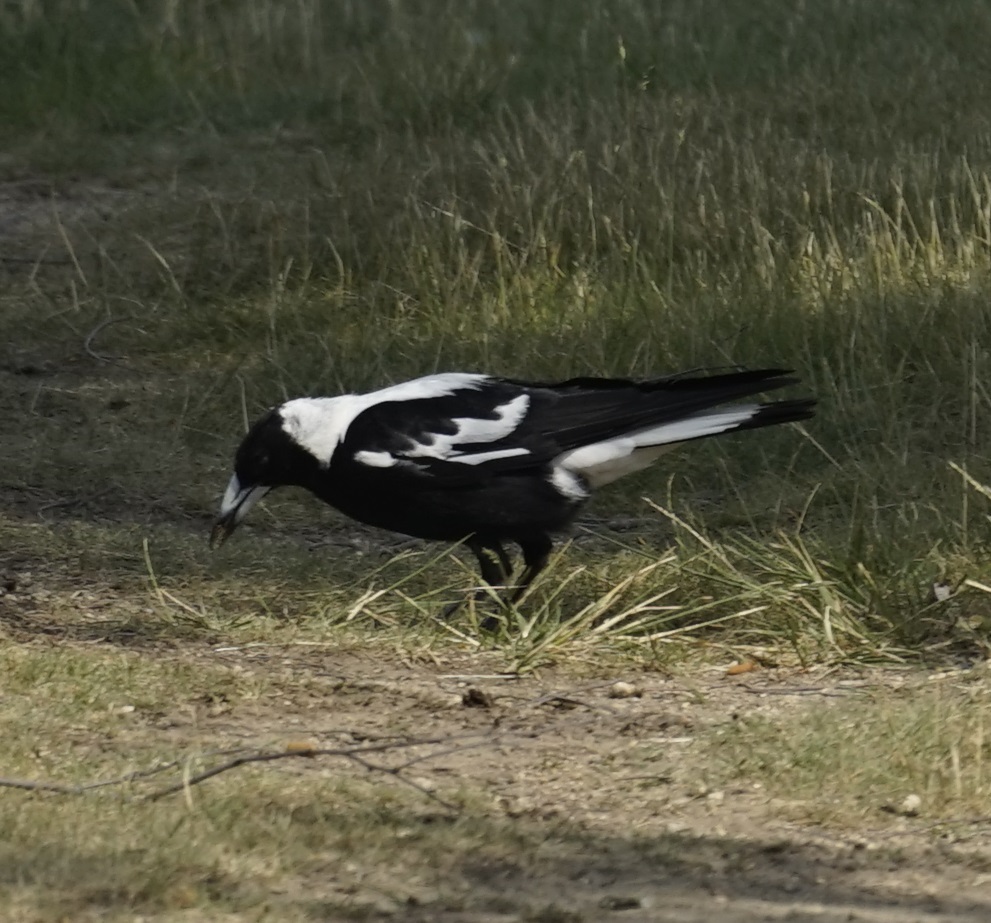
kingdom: Animalia
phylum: Chordata
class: Aves
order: Passeriformes
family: Cracticidae
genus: Gymnorhina
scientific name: Gymnorhina tibicen
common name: Australian magpie
